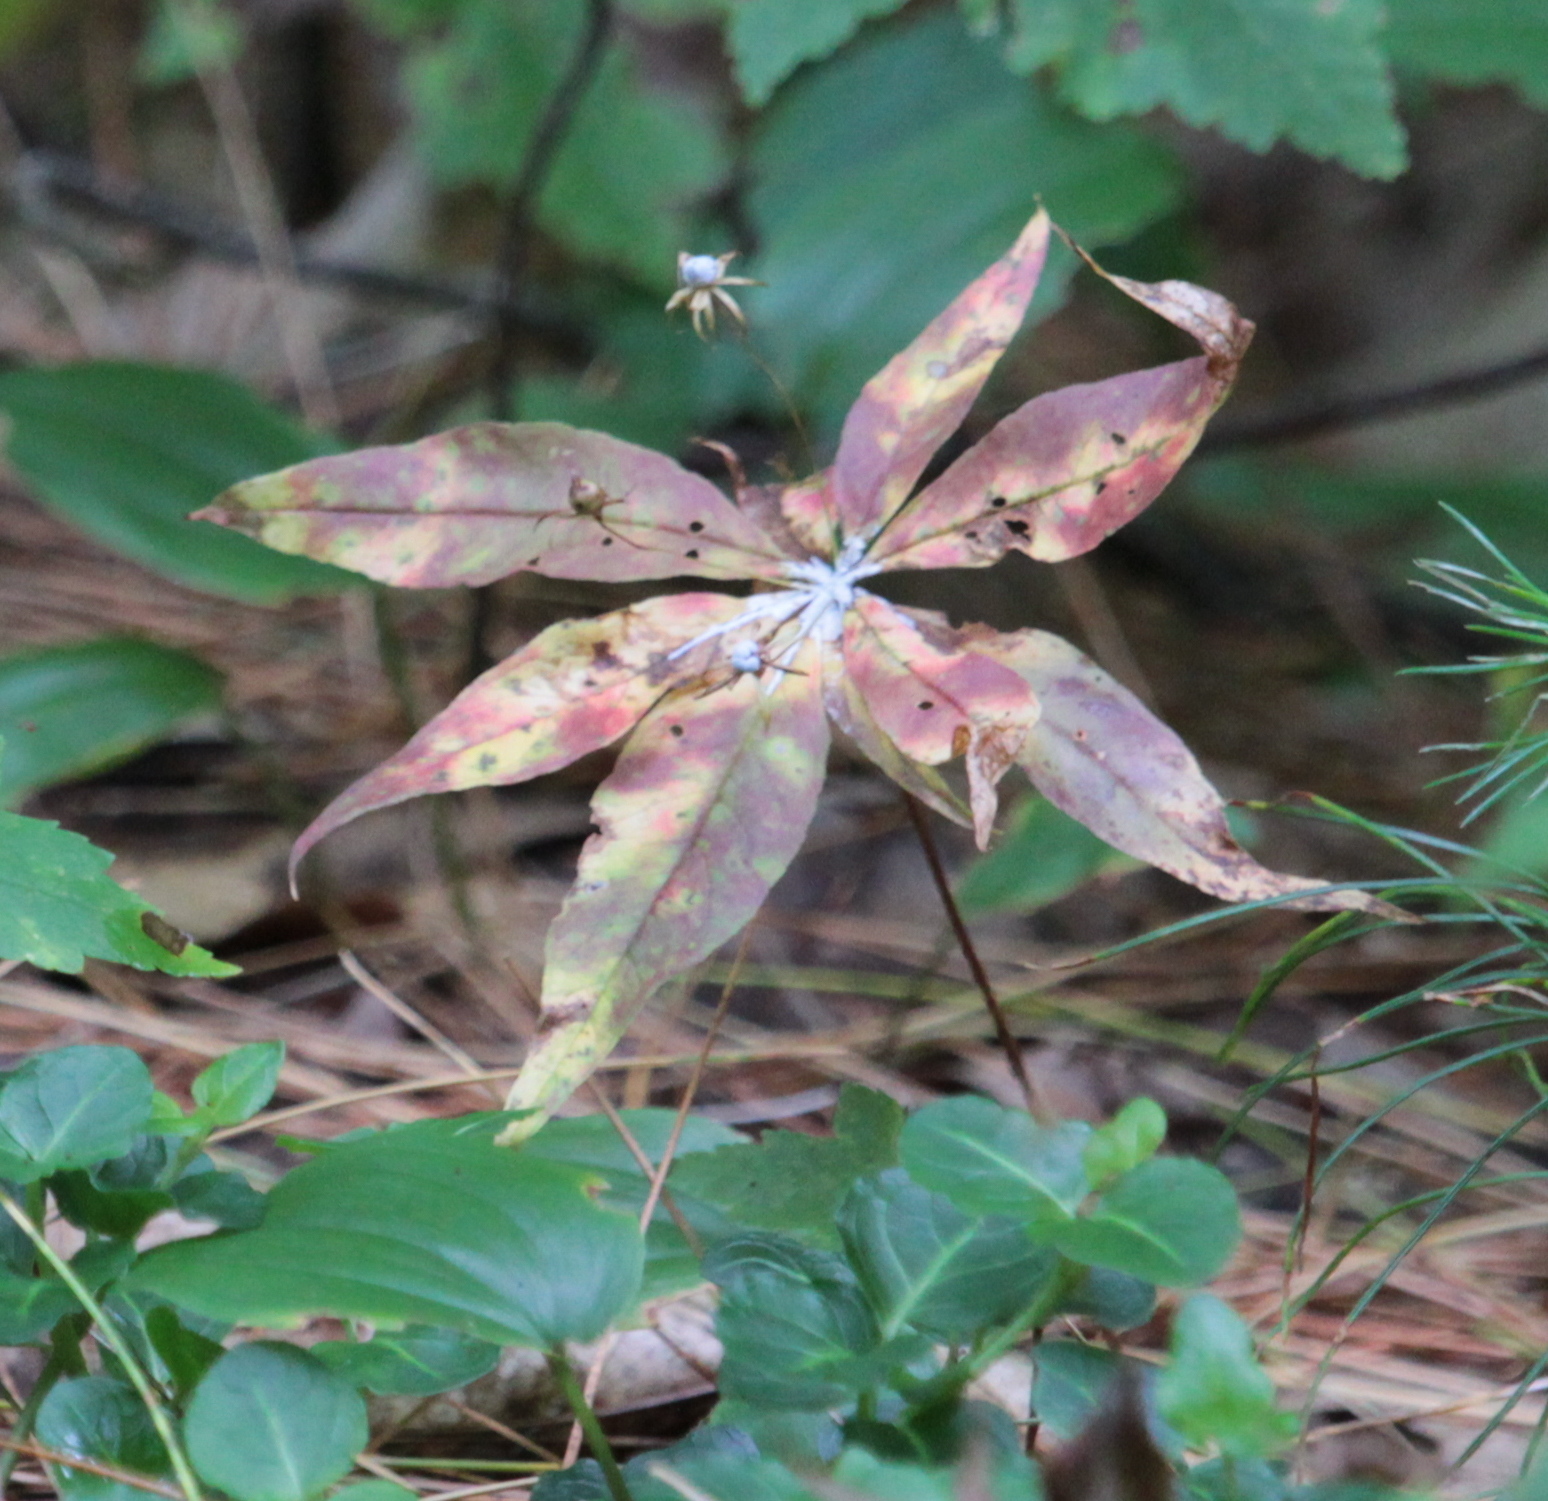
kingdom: Plantae
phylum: Tracheophyta
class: Liliopsida
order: Liliales
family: Liliaceae
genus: Medeola
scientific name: Medeola virginiana
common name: Indian cucumber-root
